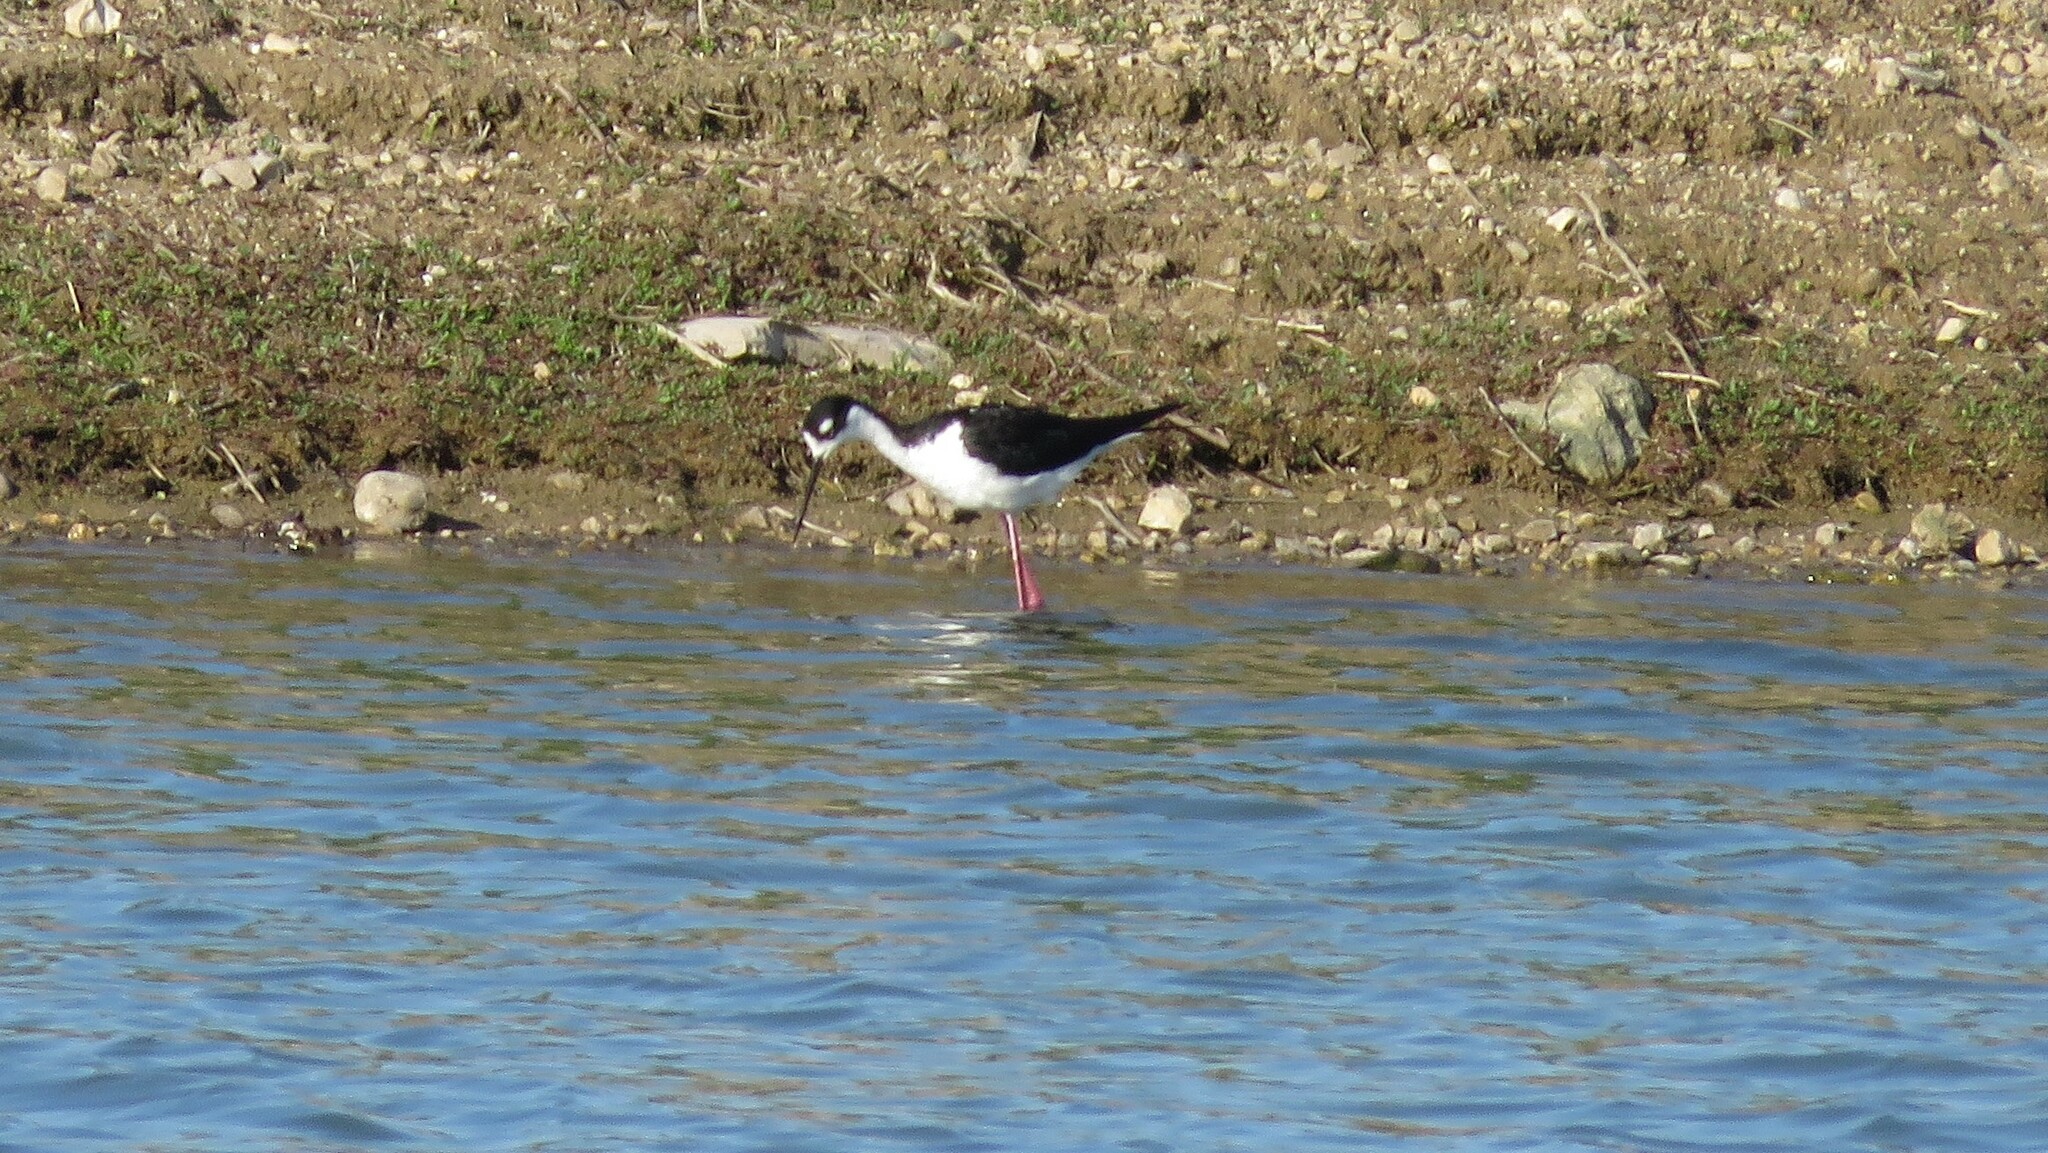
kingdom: Animalia
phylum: Chordata
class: Aves
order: Charadriiformes
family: Recurvirostridae
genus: Himantopus
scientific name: Himantopus mexicanus
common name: Black-necked stilt
